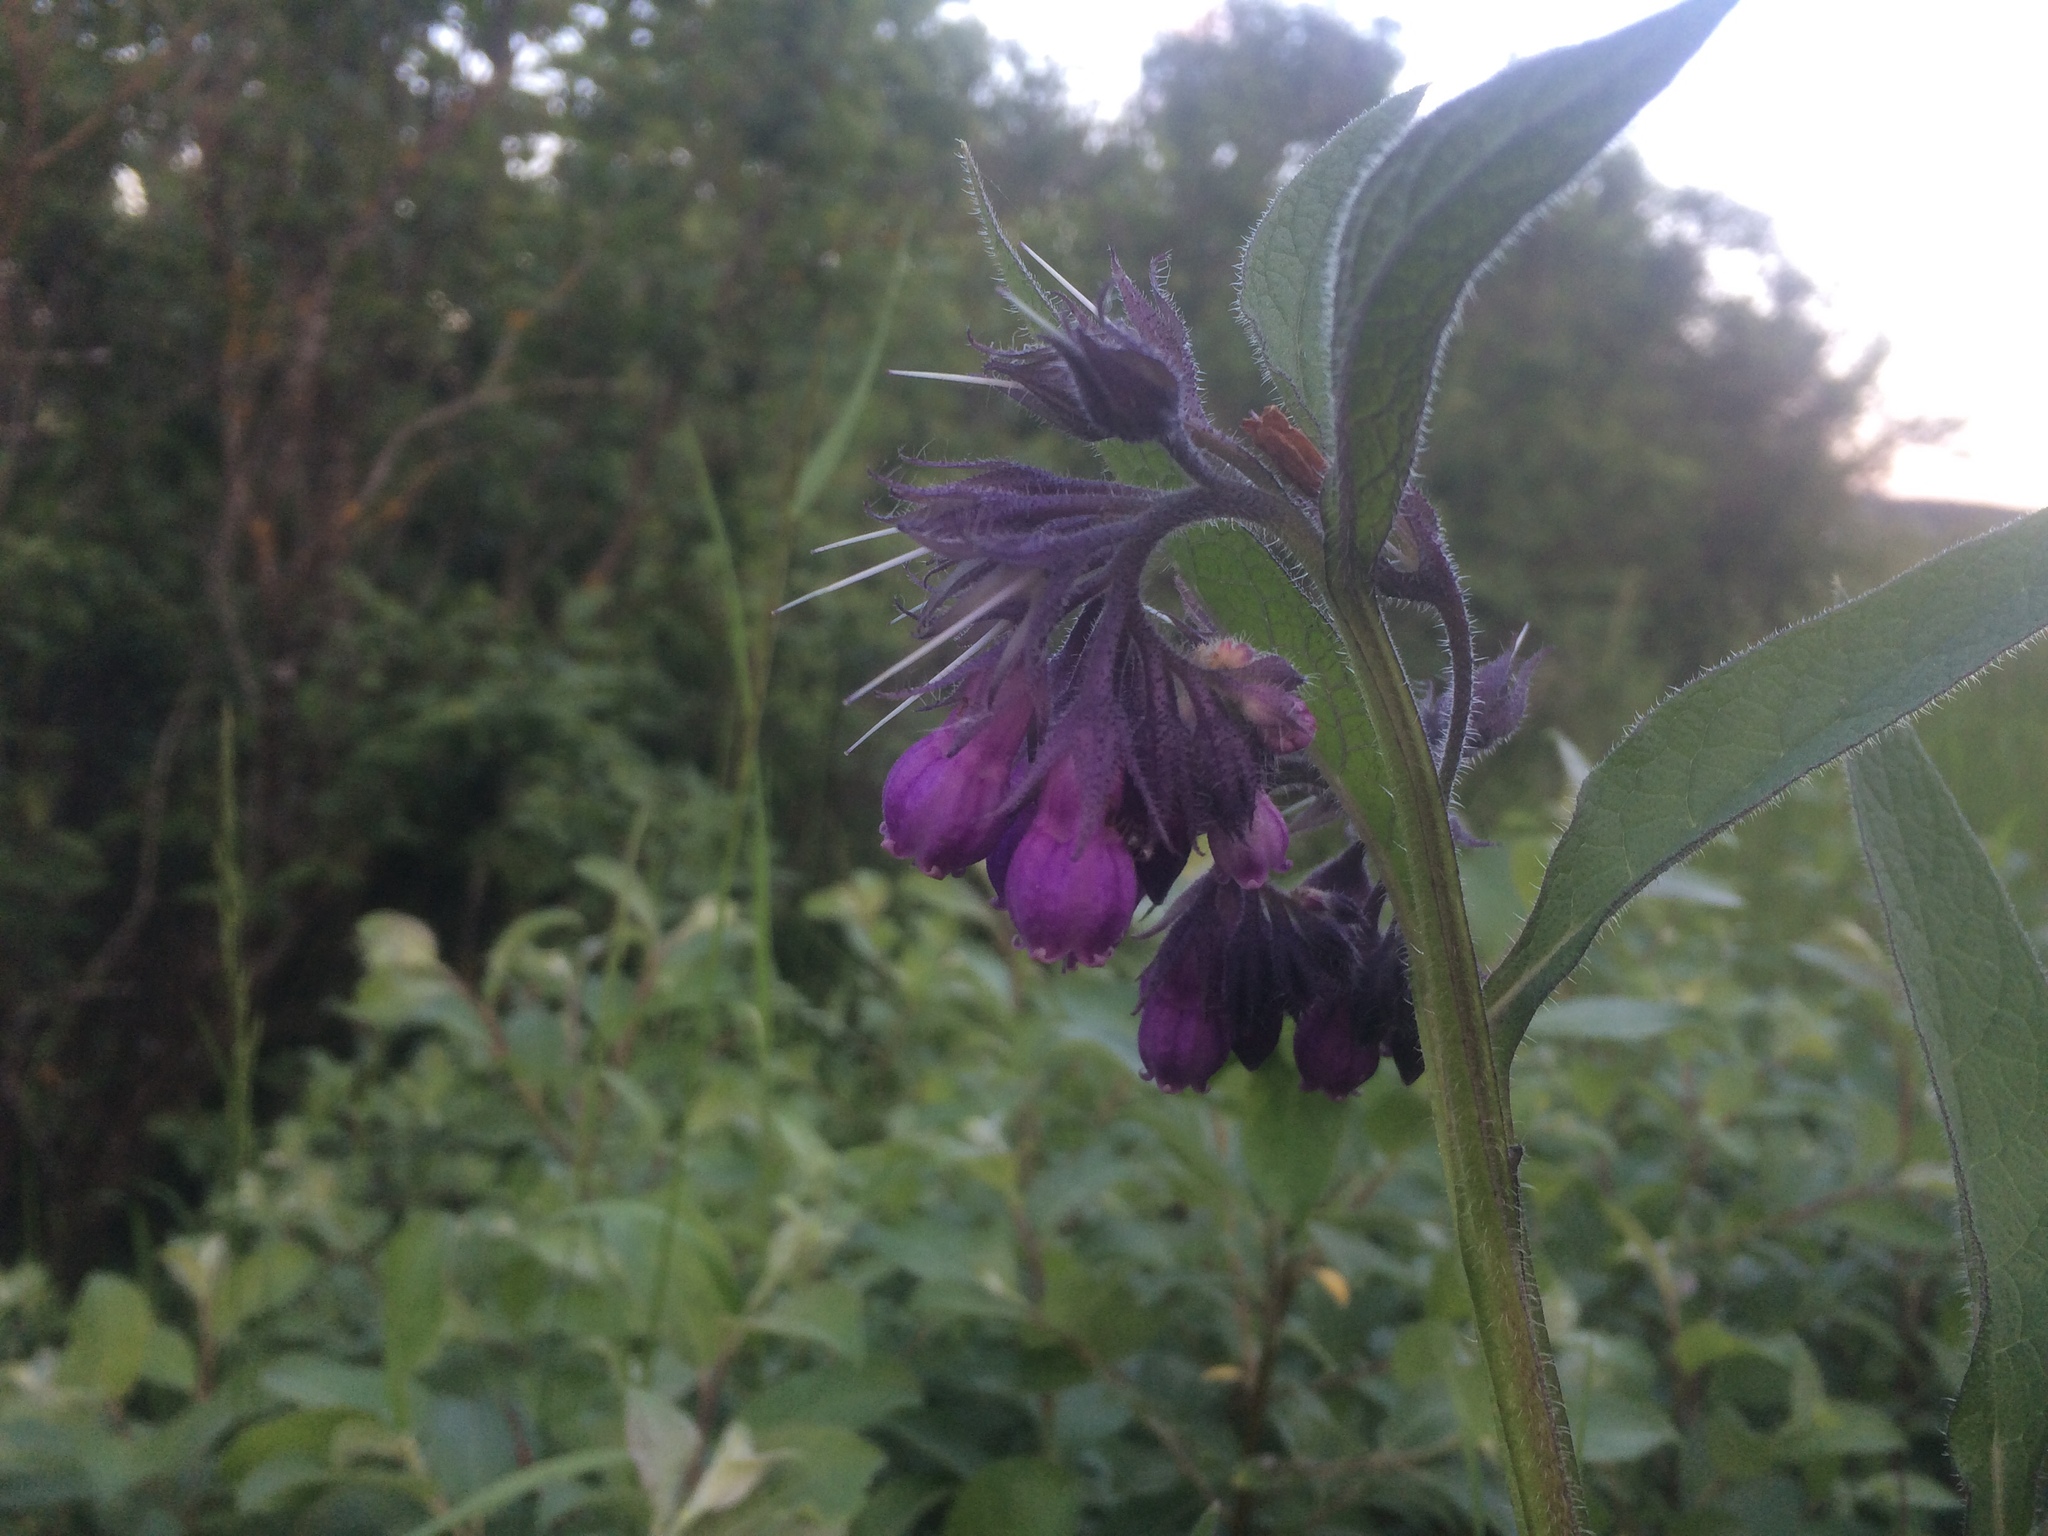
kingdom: Plantae
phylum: Tracheophyta
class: Magnoliopsida
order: Boraginales
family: Boraginaceae
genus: Symphytum
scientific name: Symphytum officinale
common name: Common comfrey
